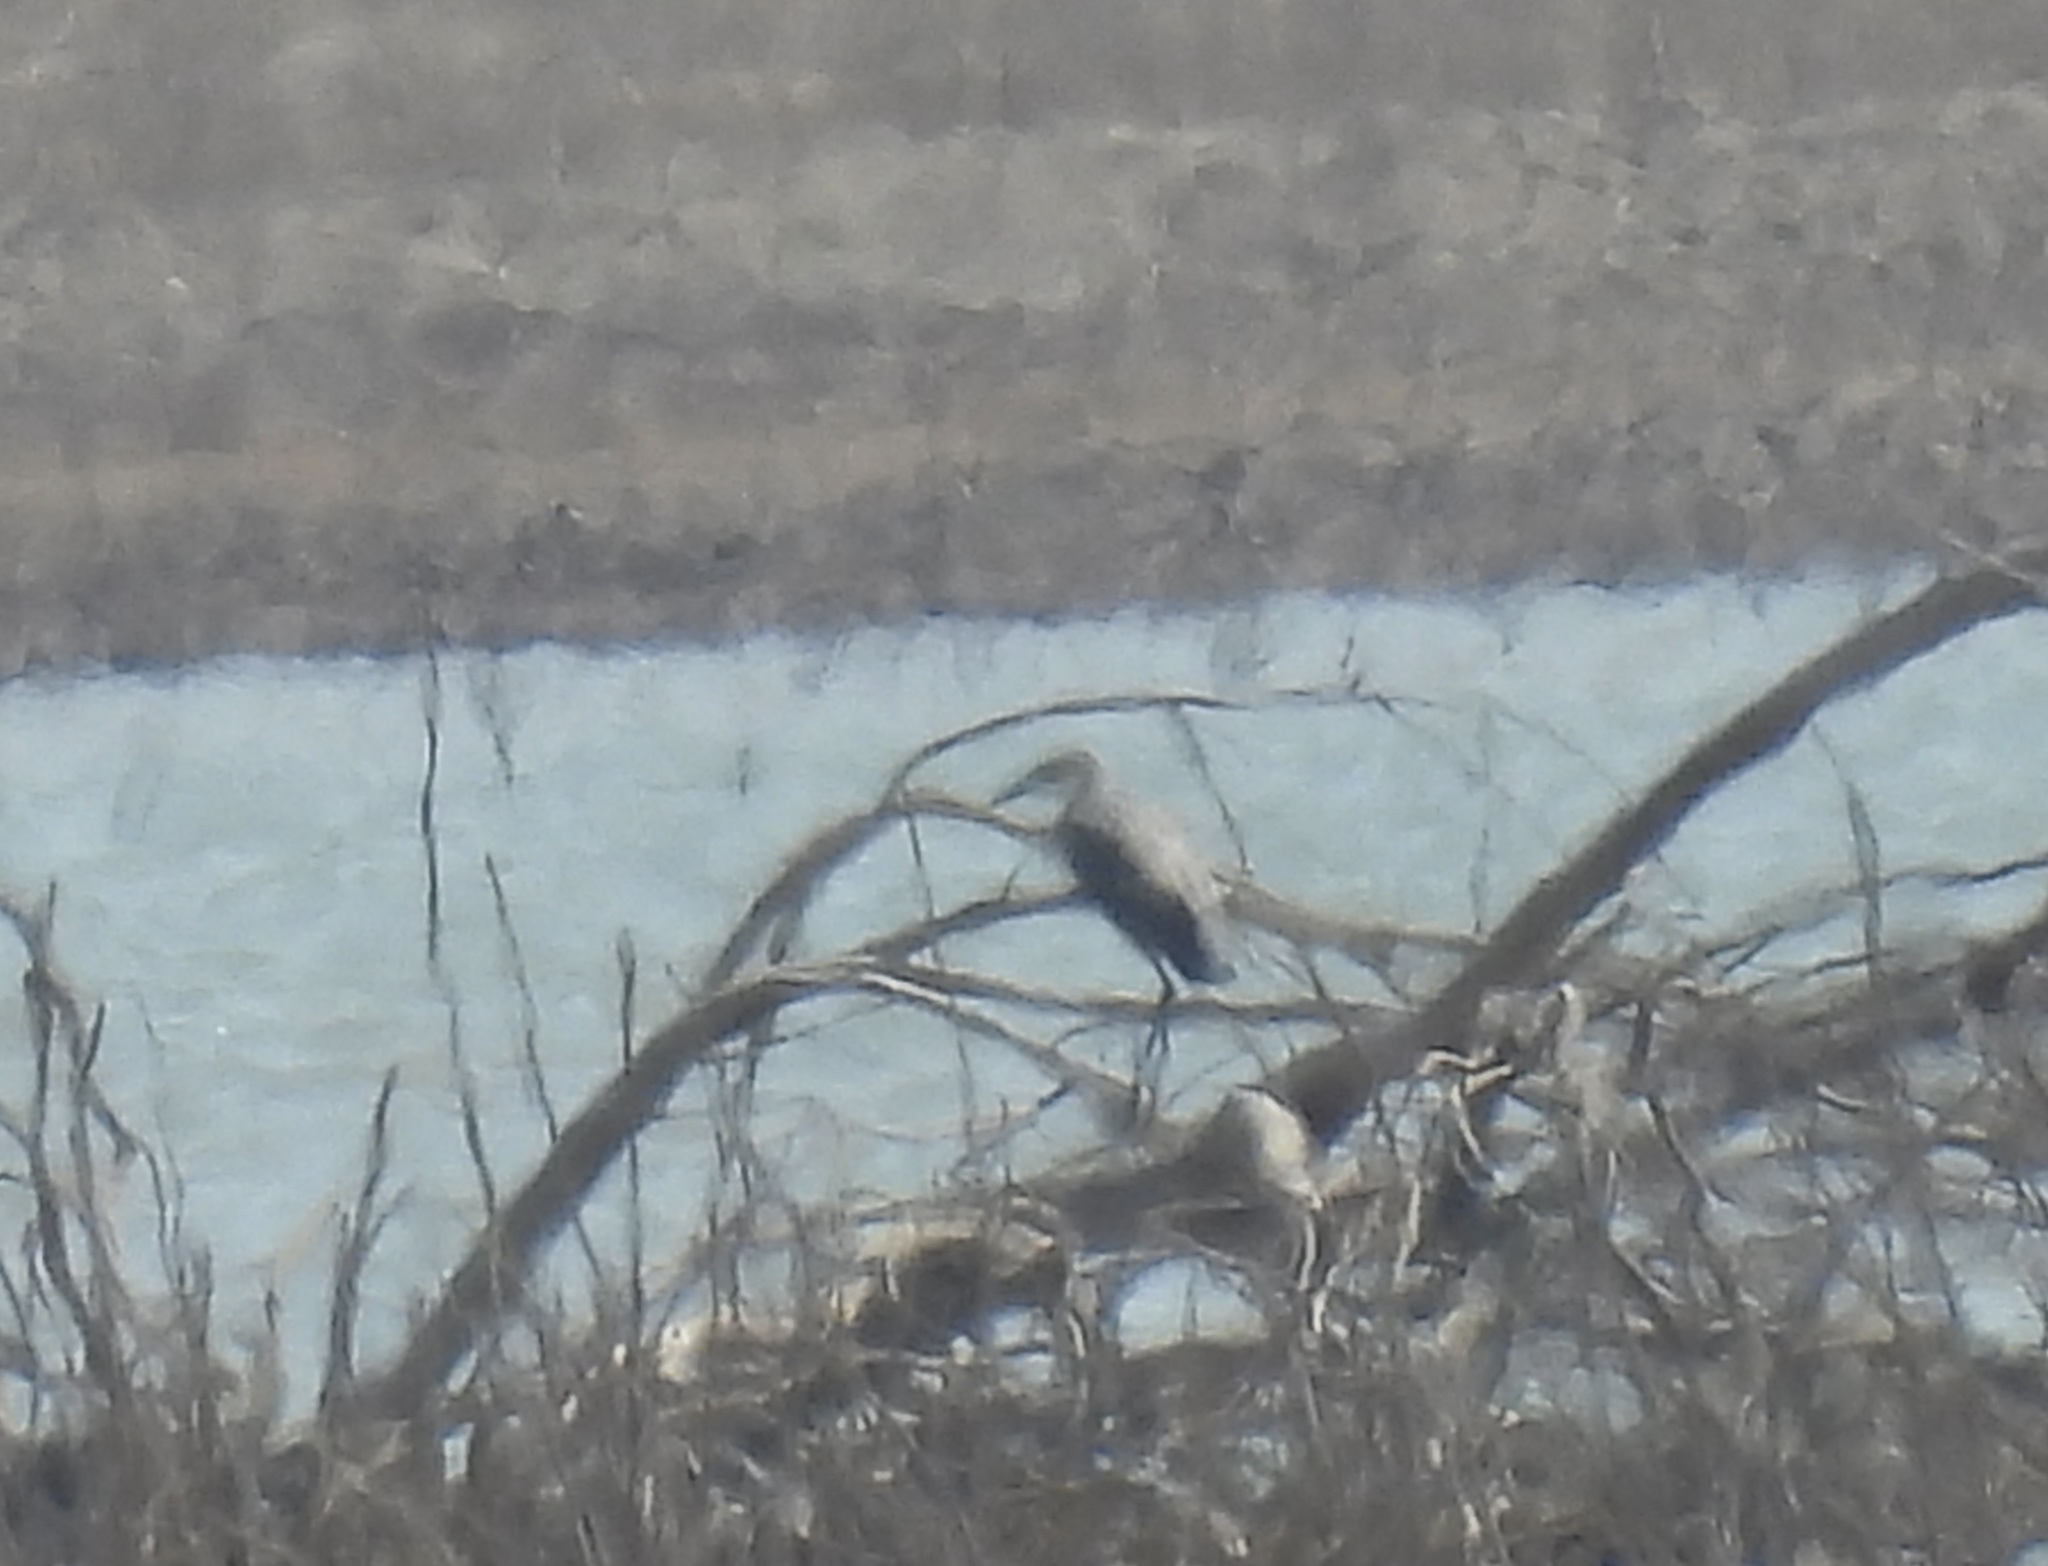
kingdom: Animalia
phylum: Chordata
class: Aves
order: Pelecaniformes
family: Ardeidae
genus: Egretta
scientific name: Egretta rufescens
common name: Reddish egret
